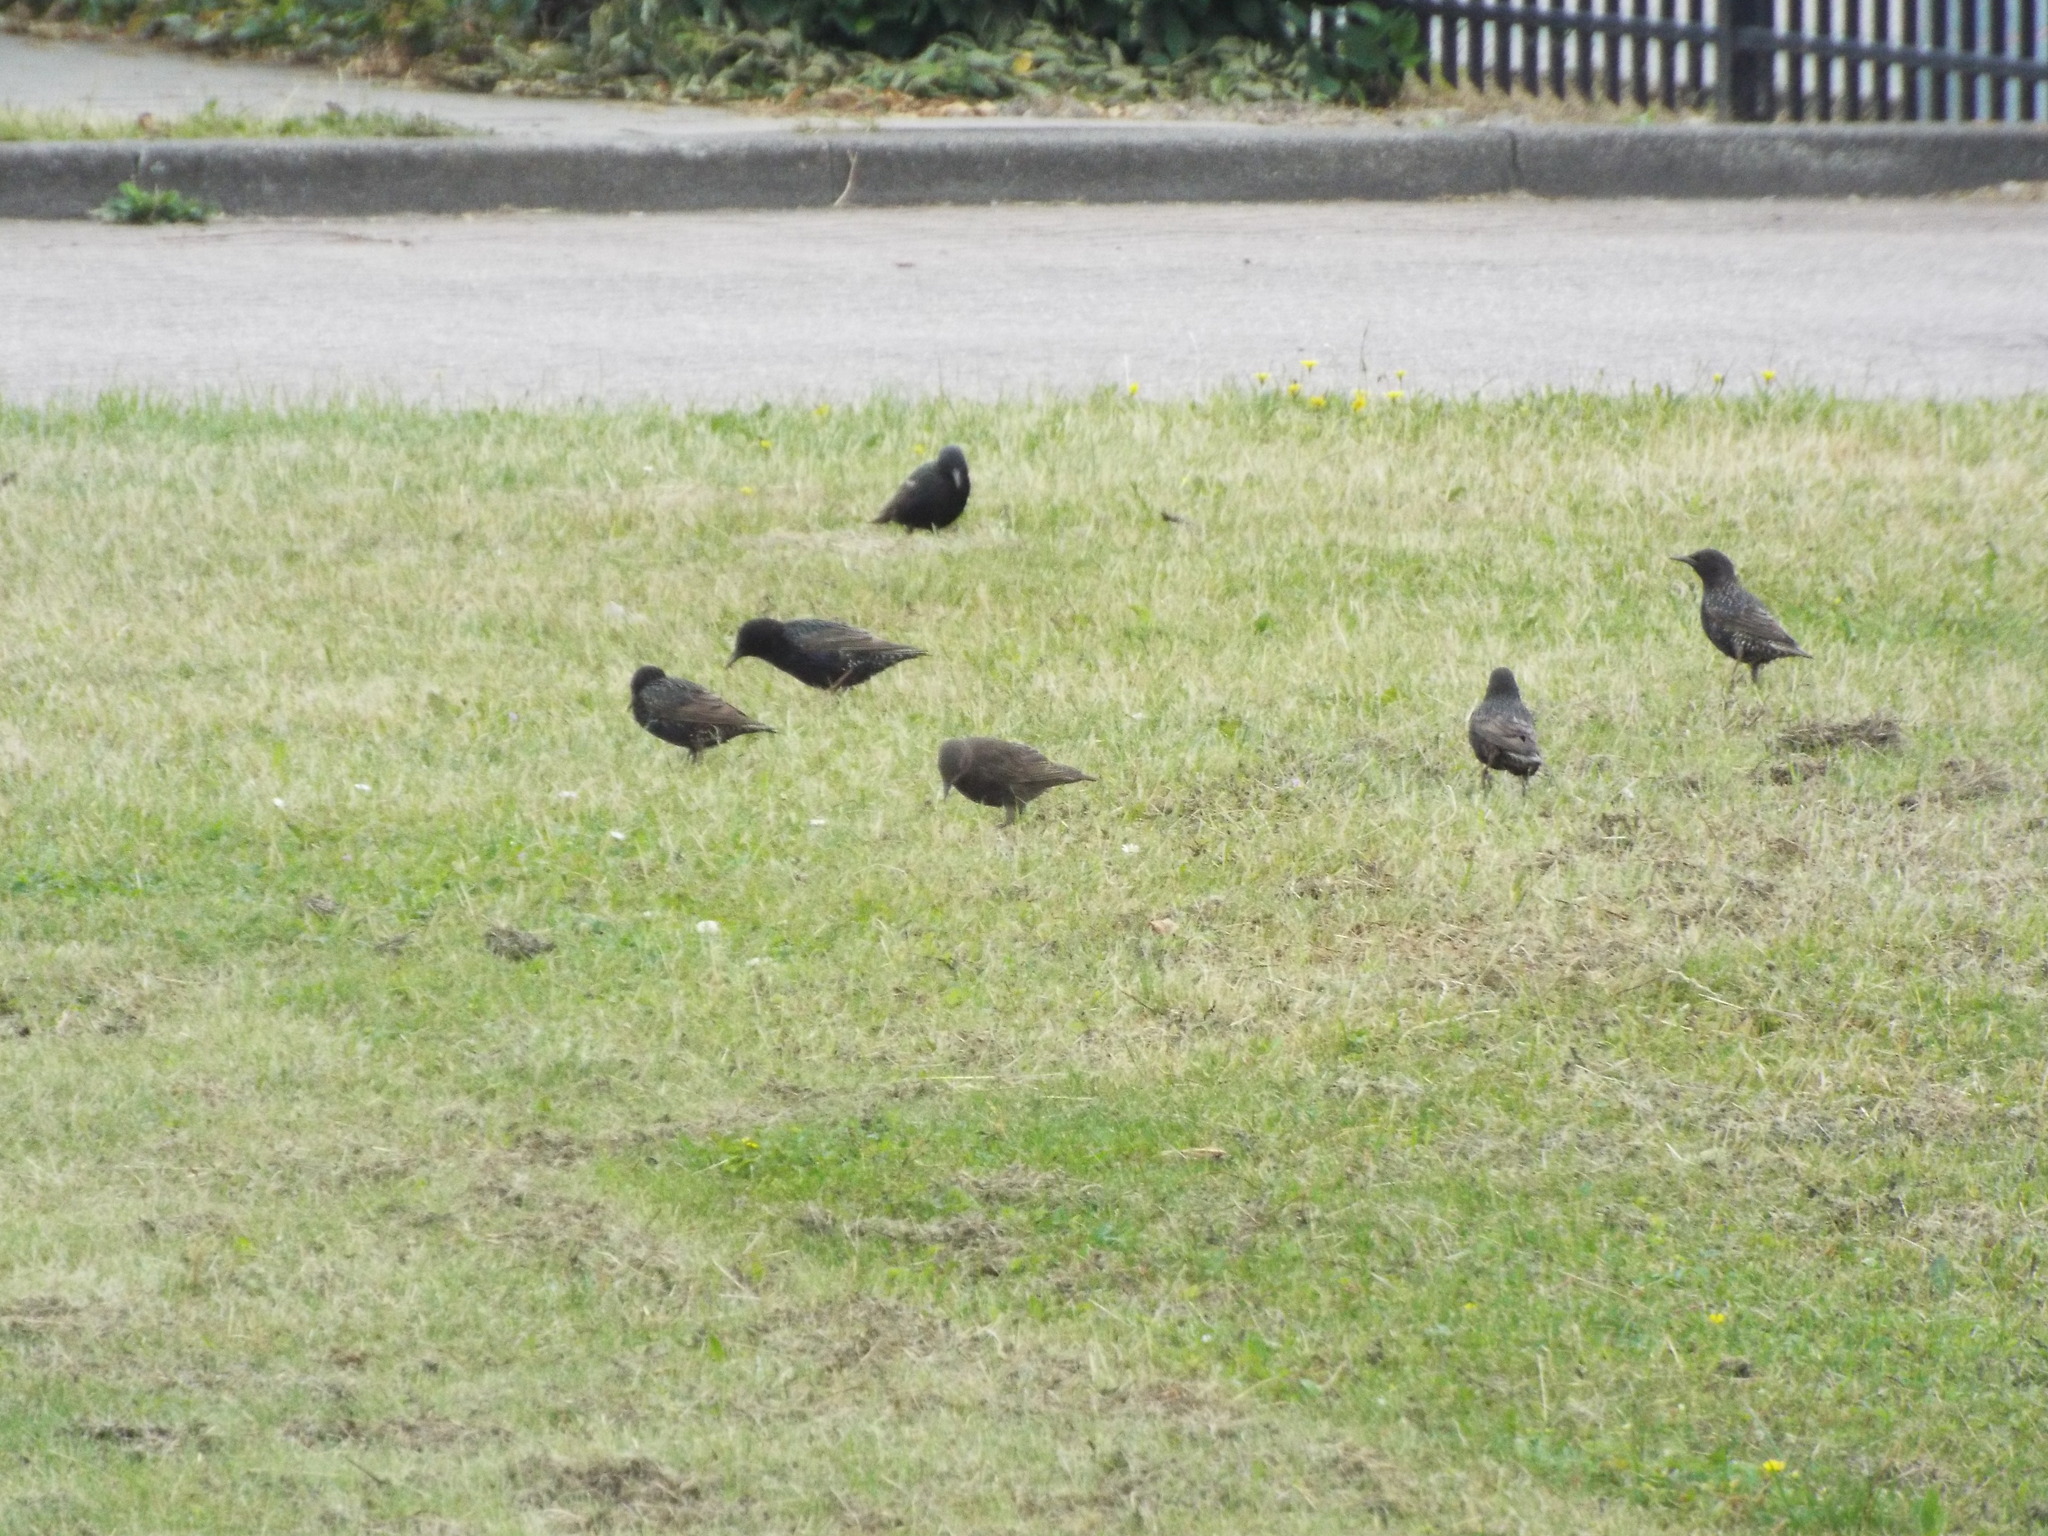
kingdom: Animalia
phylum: Chordata
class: Aves
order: Passeriformes
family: Sturnidae
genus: Sturnus
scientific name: Sturnus vulgaris
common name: Common starling
